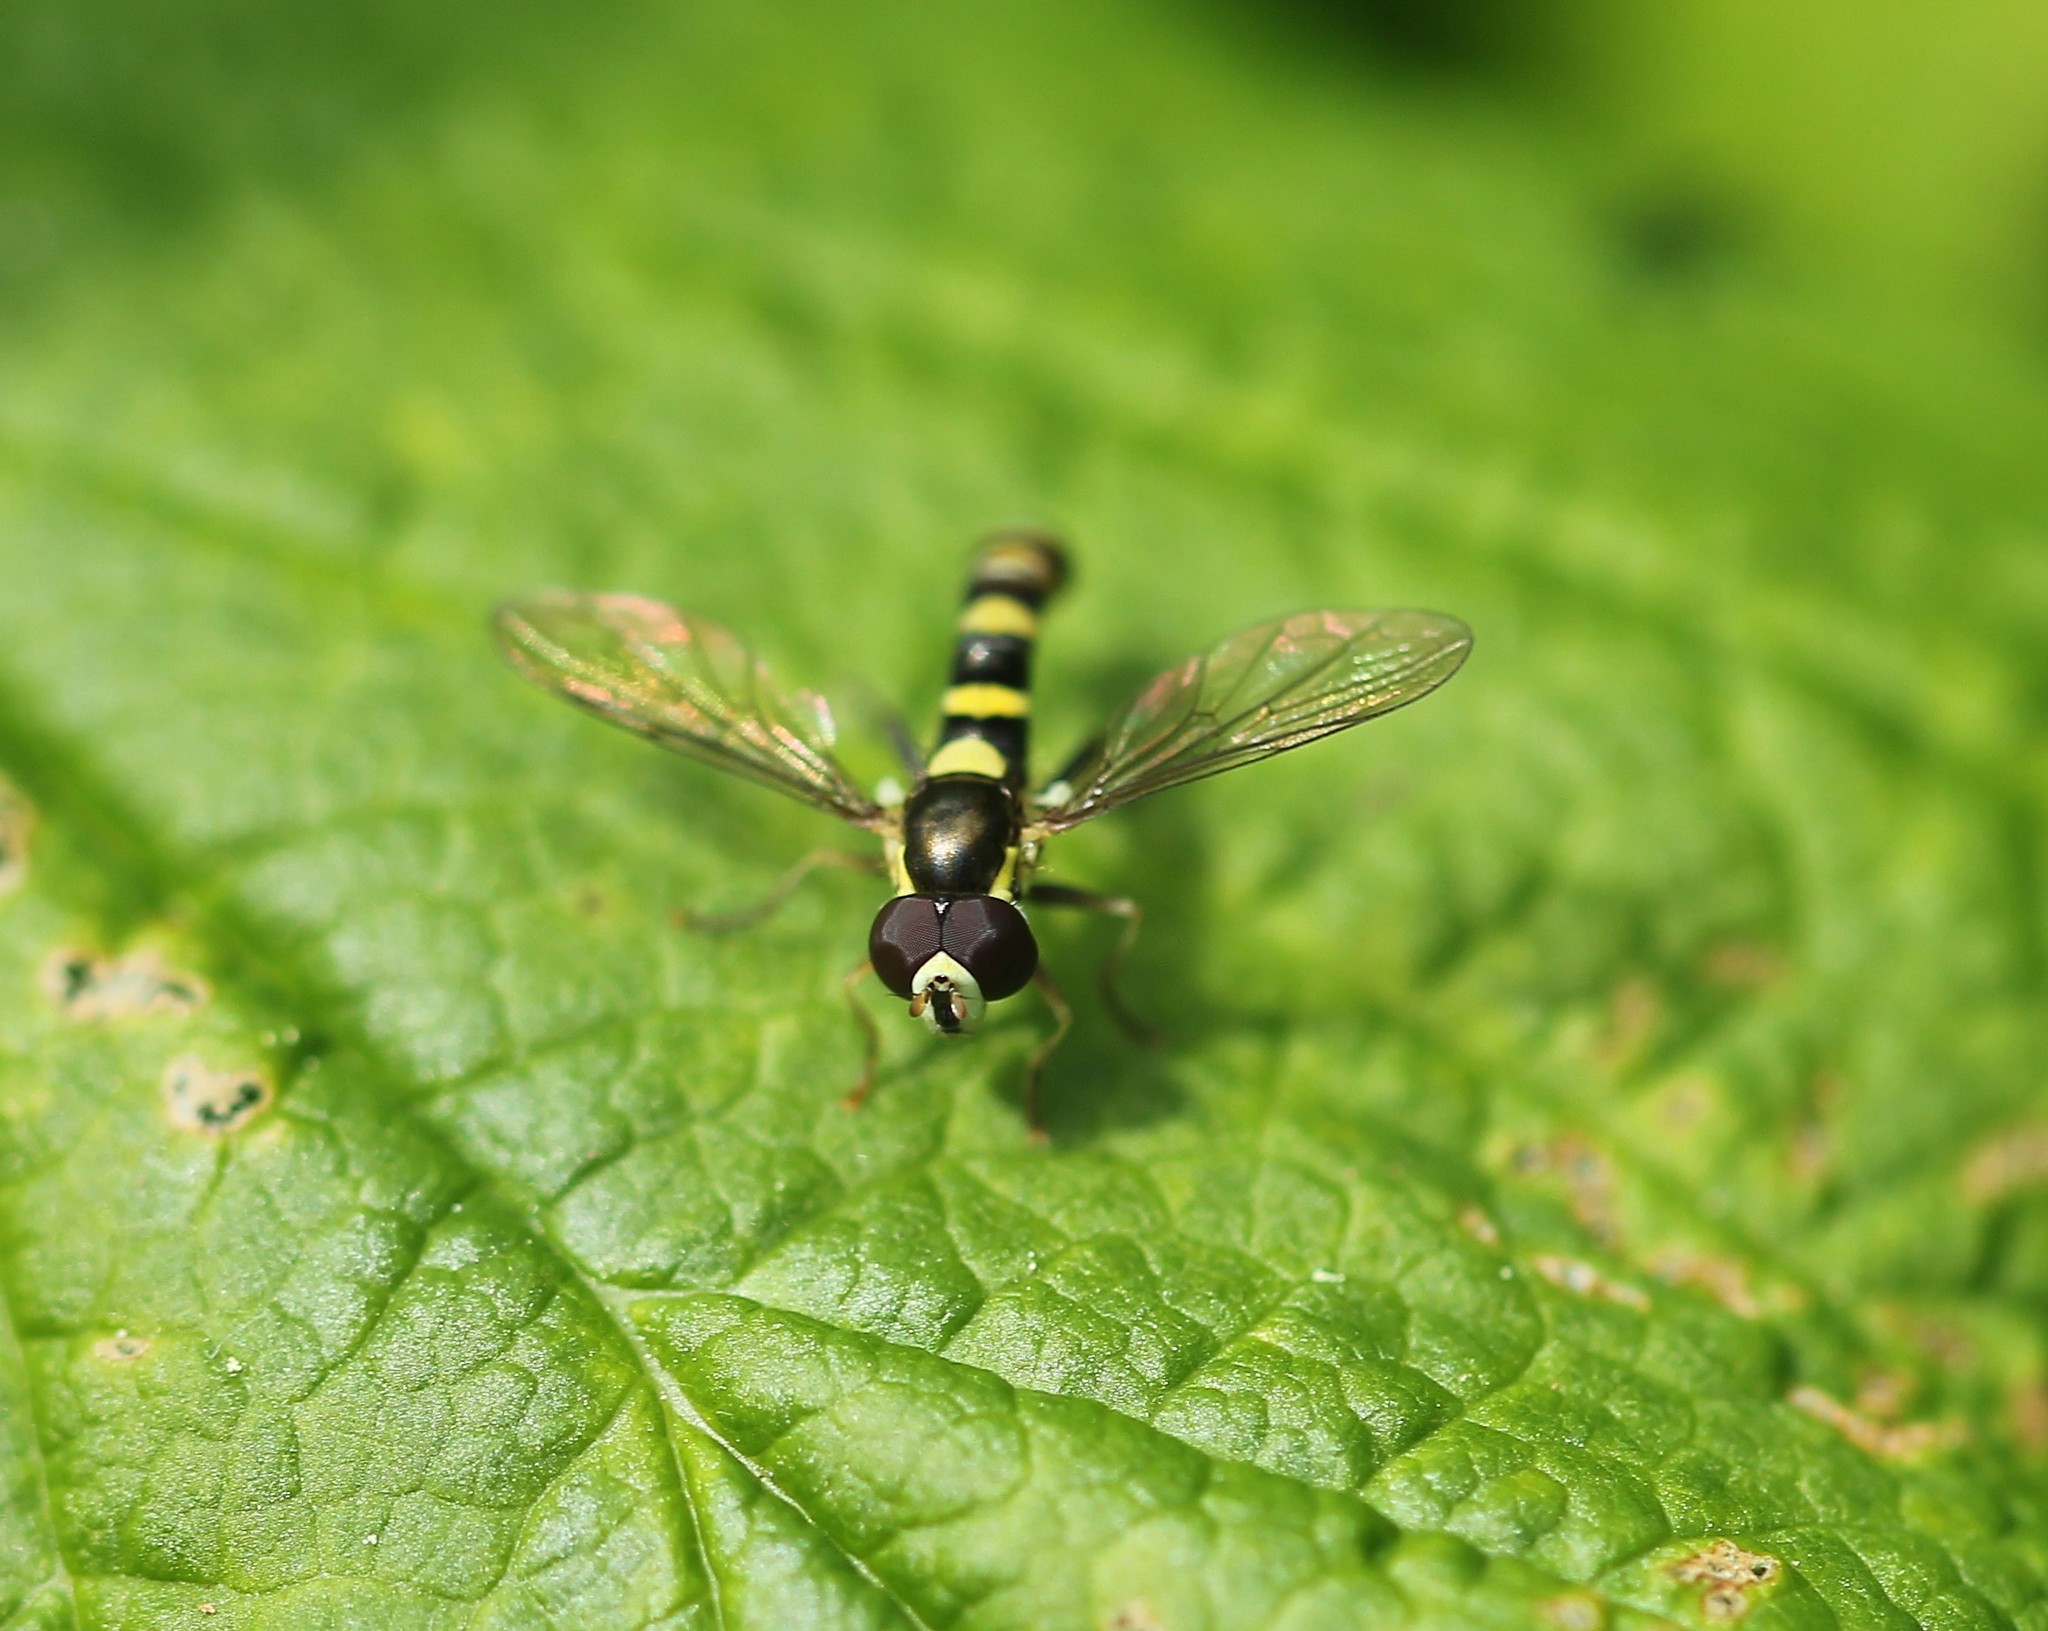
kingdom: Animalia
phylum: Arthropoda
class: Insecta
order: Diptera
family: Syrphidae
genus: Sphaerophoria
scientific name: Sphaerophoria novaeangliae
